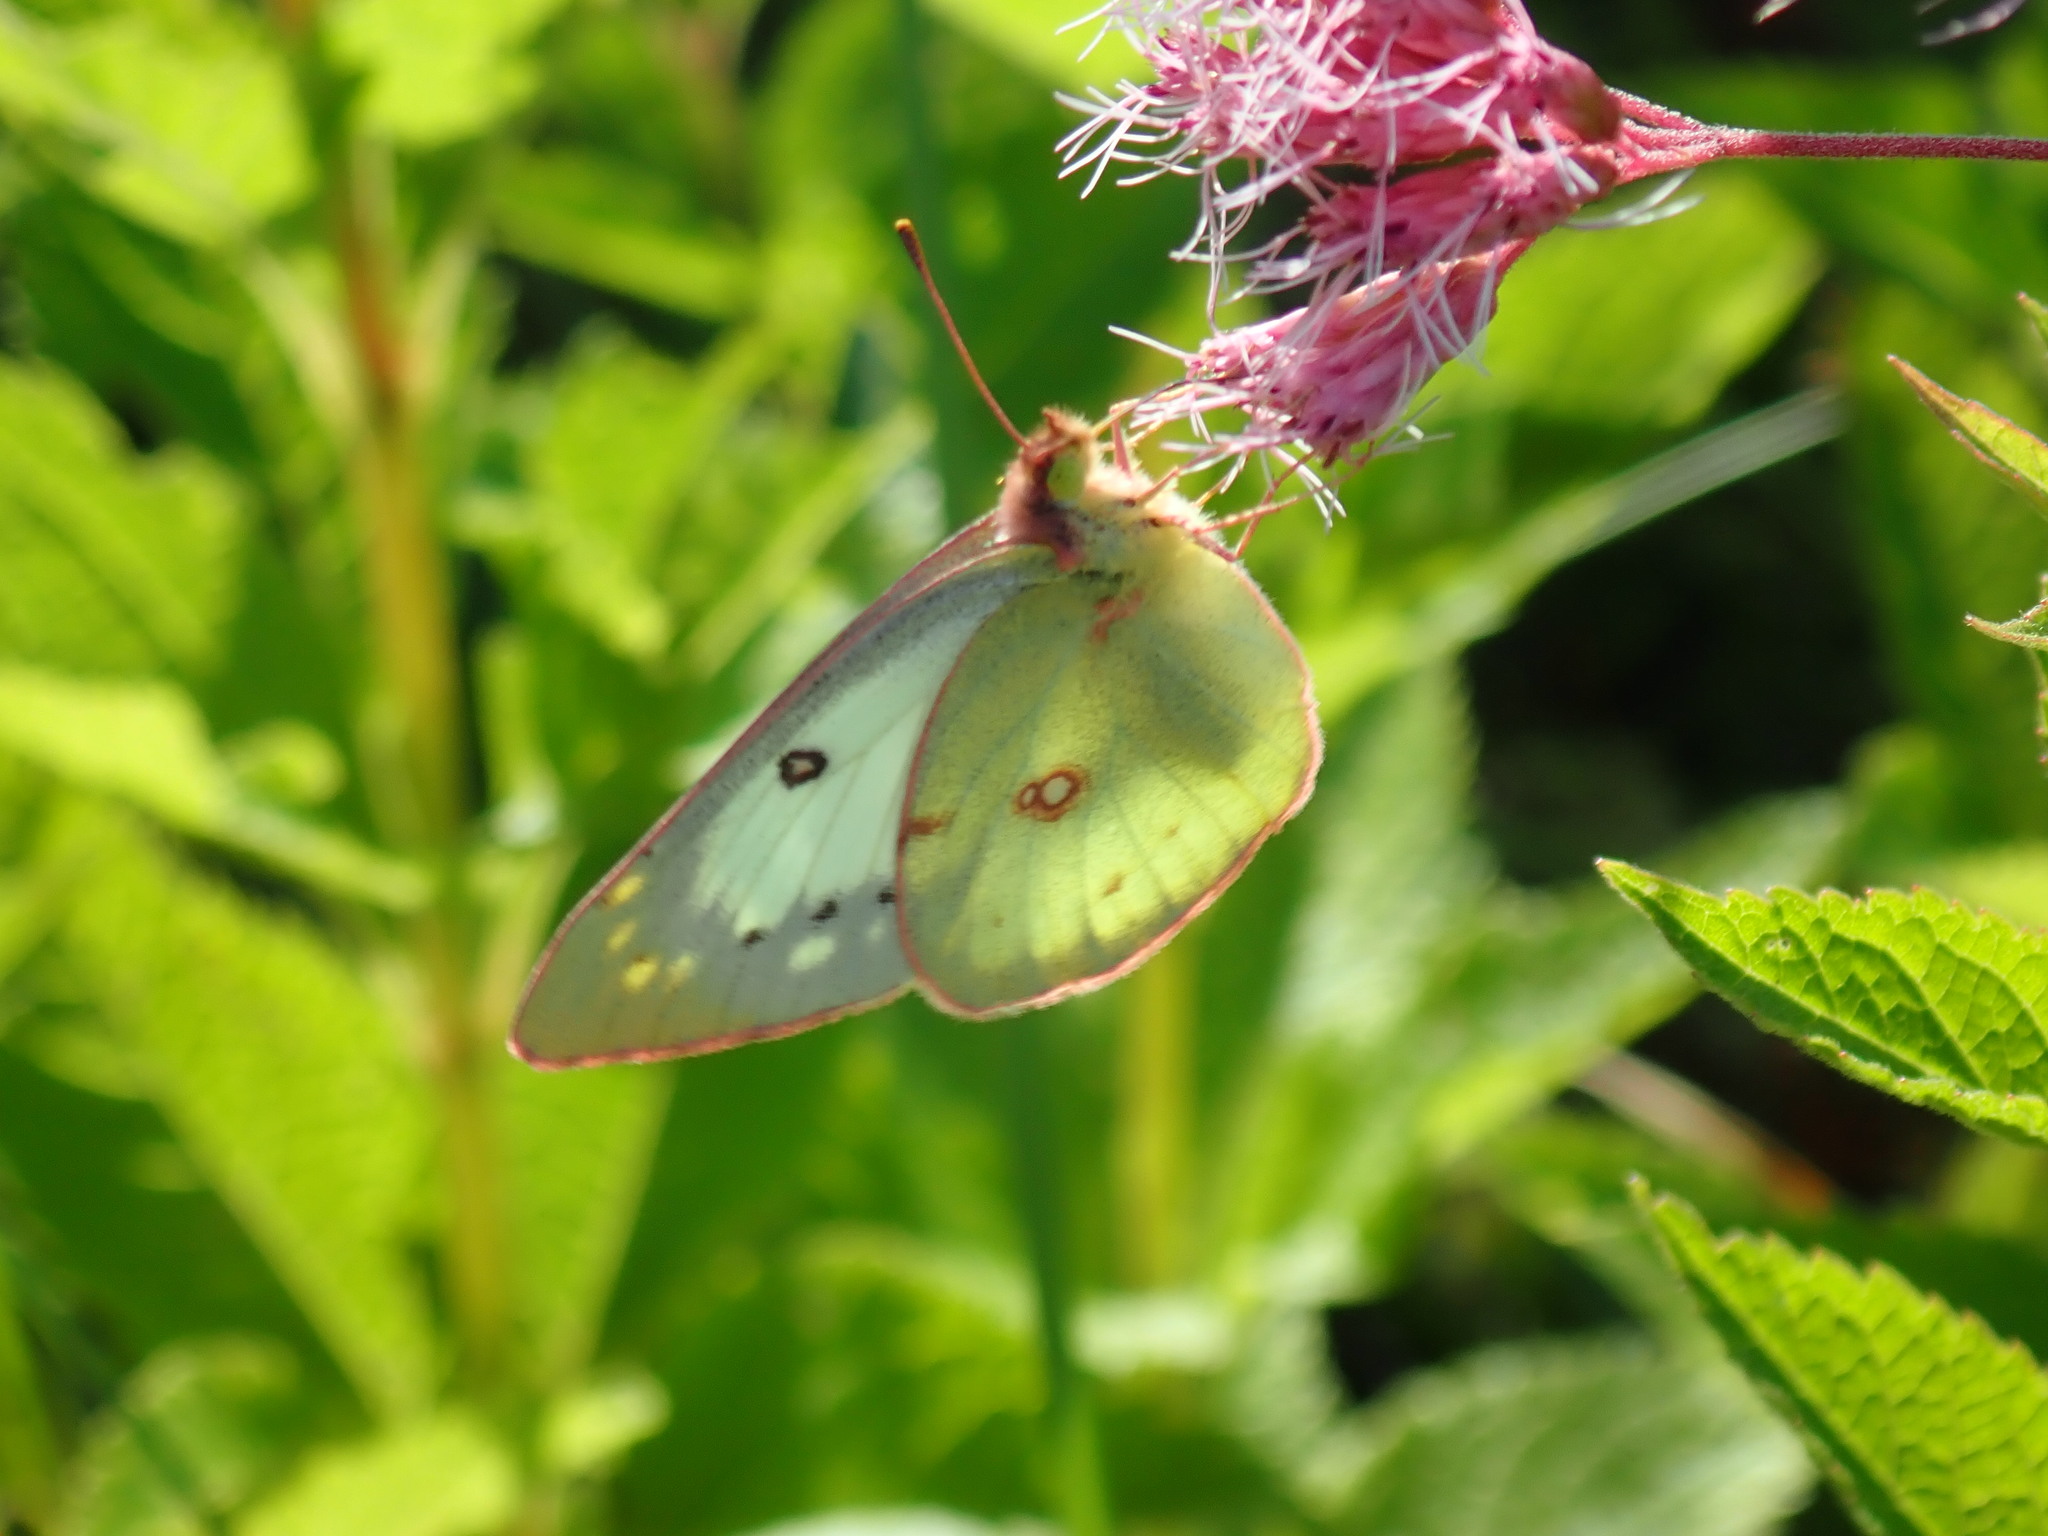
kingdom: Animalia
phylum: Arthropoda
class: Insecta
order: Lepidoptera
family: Pieridae
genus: Colias
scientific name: Colias philodice
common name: Clouded sulphur
